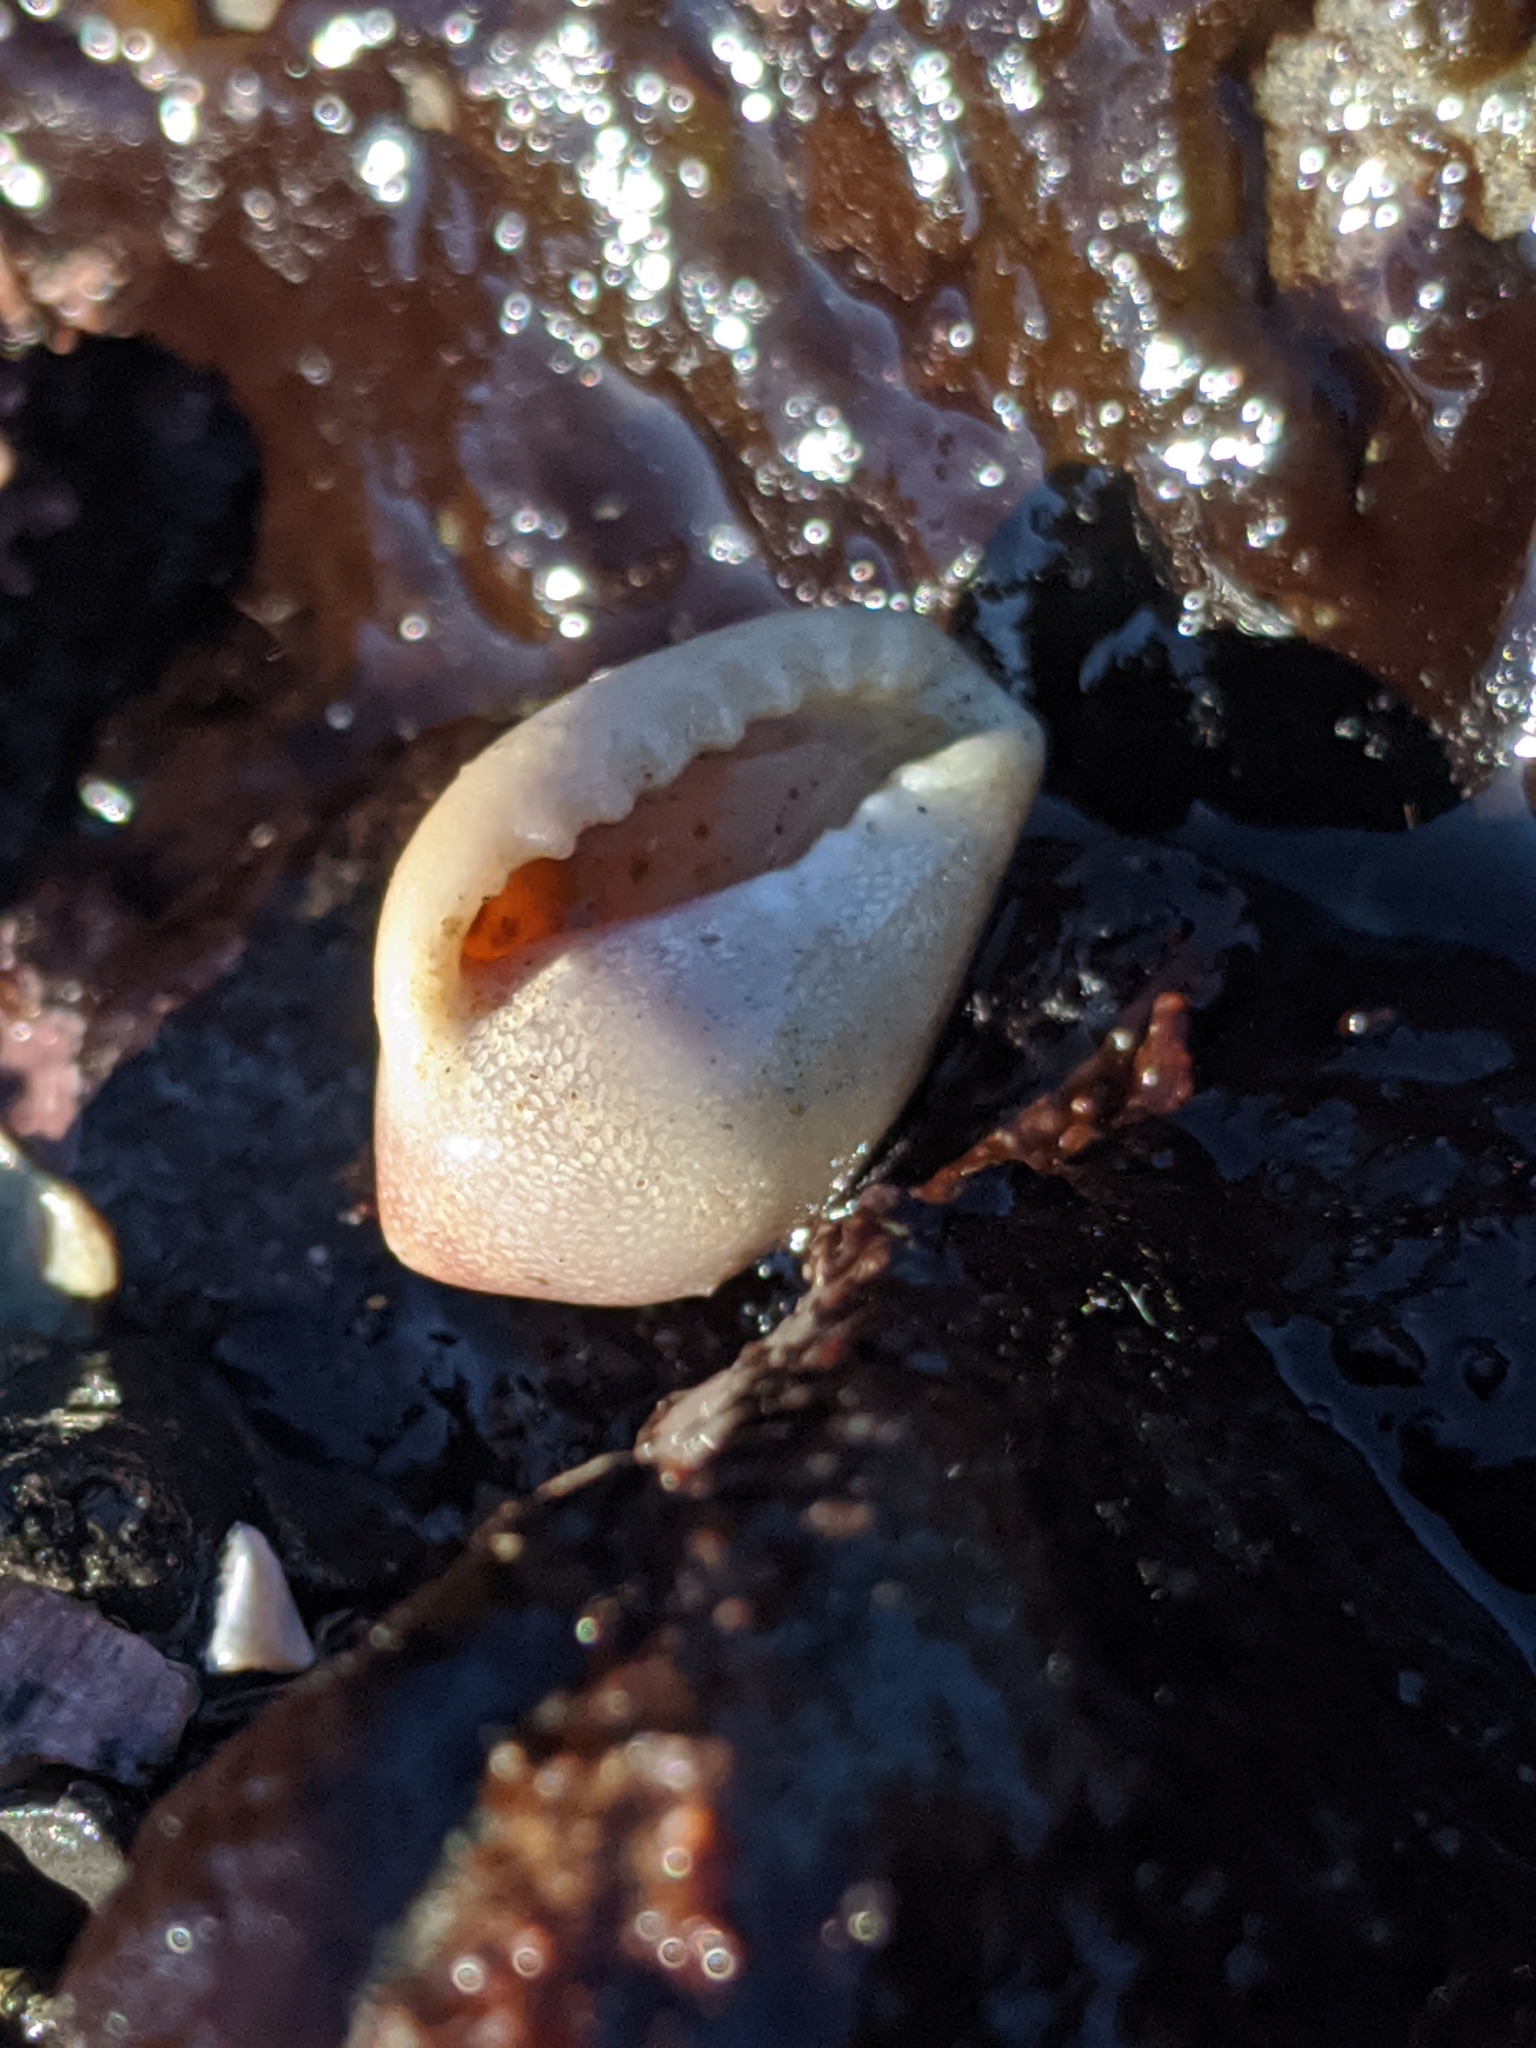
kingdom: Animalia
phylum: Mollusca
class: Gastropoda
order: Littorinimorpha
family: Eratoidae
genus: Hespererato
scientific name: Hespererato vitellina
